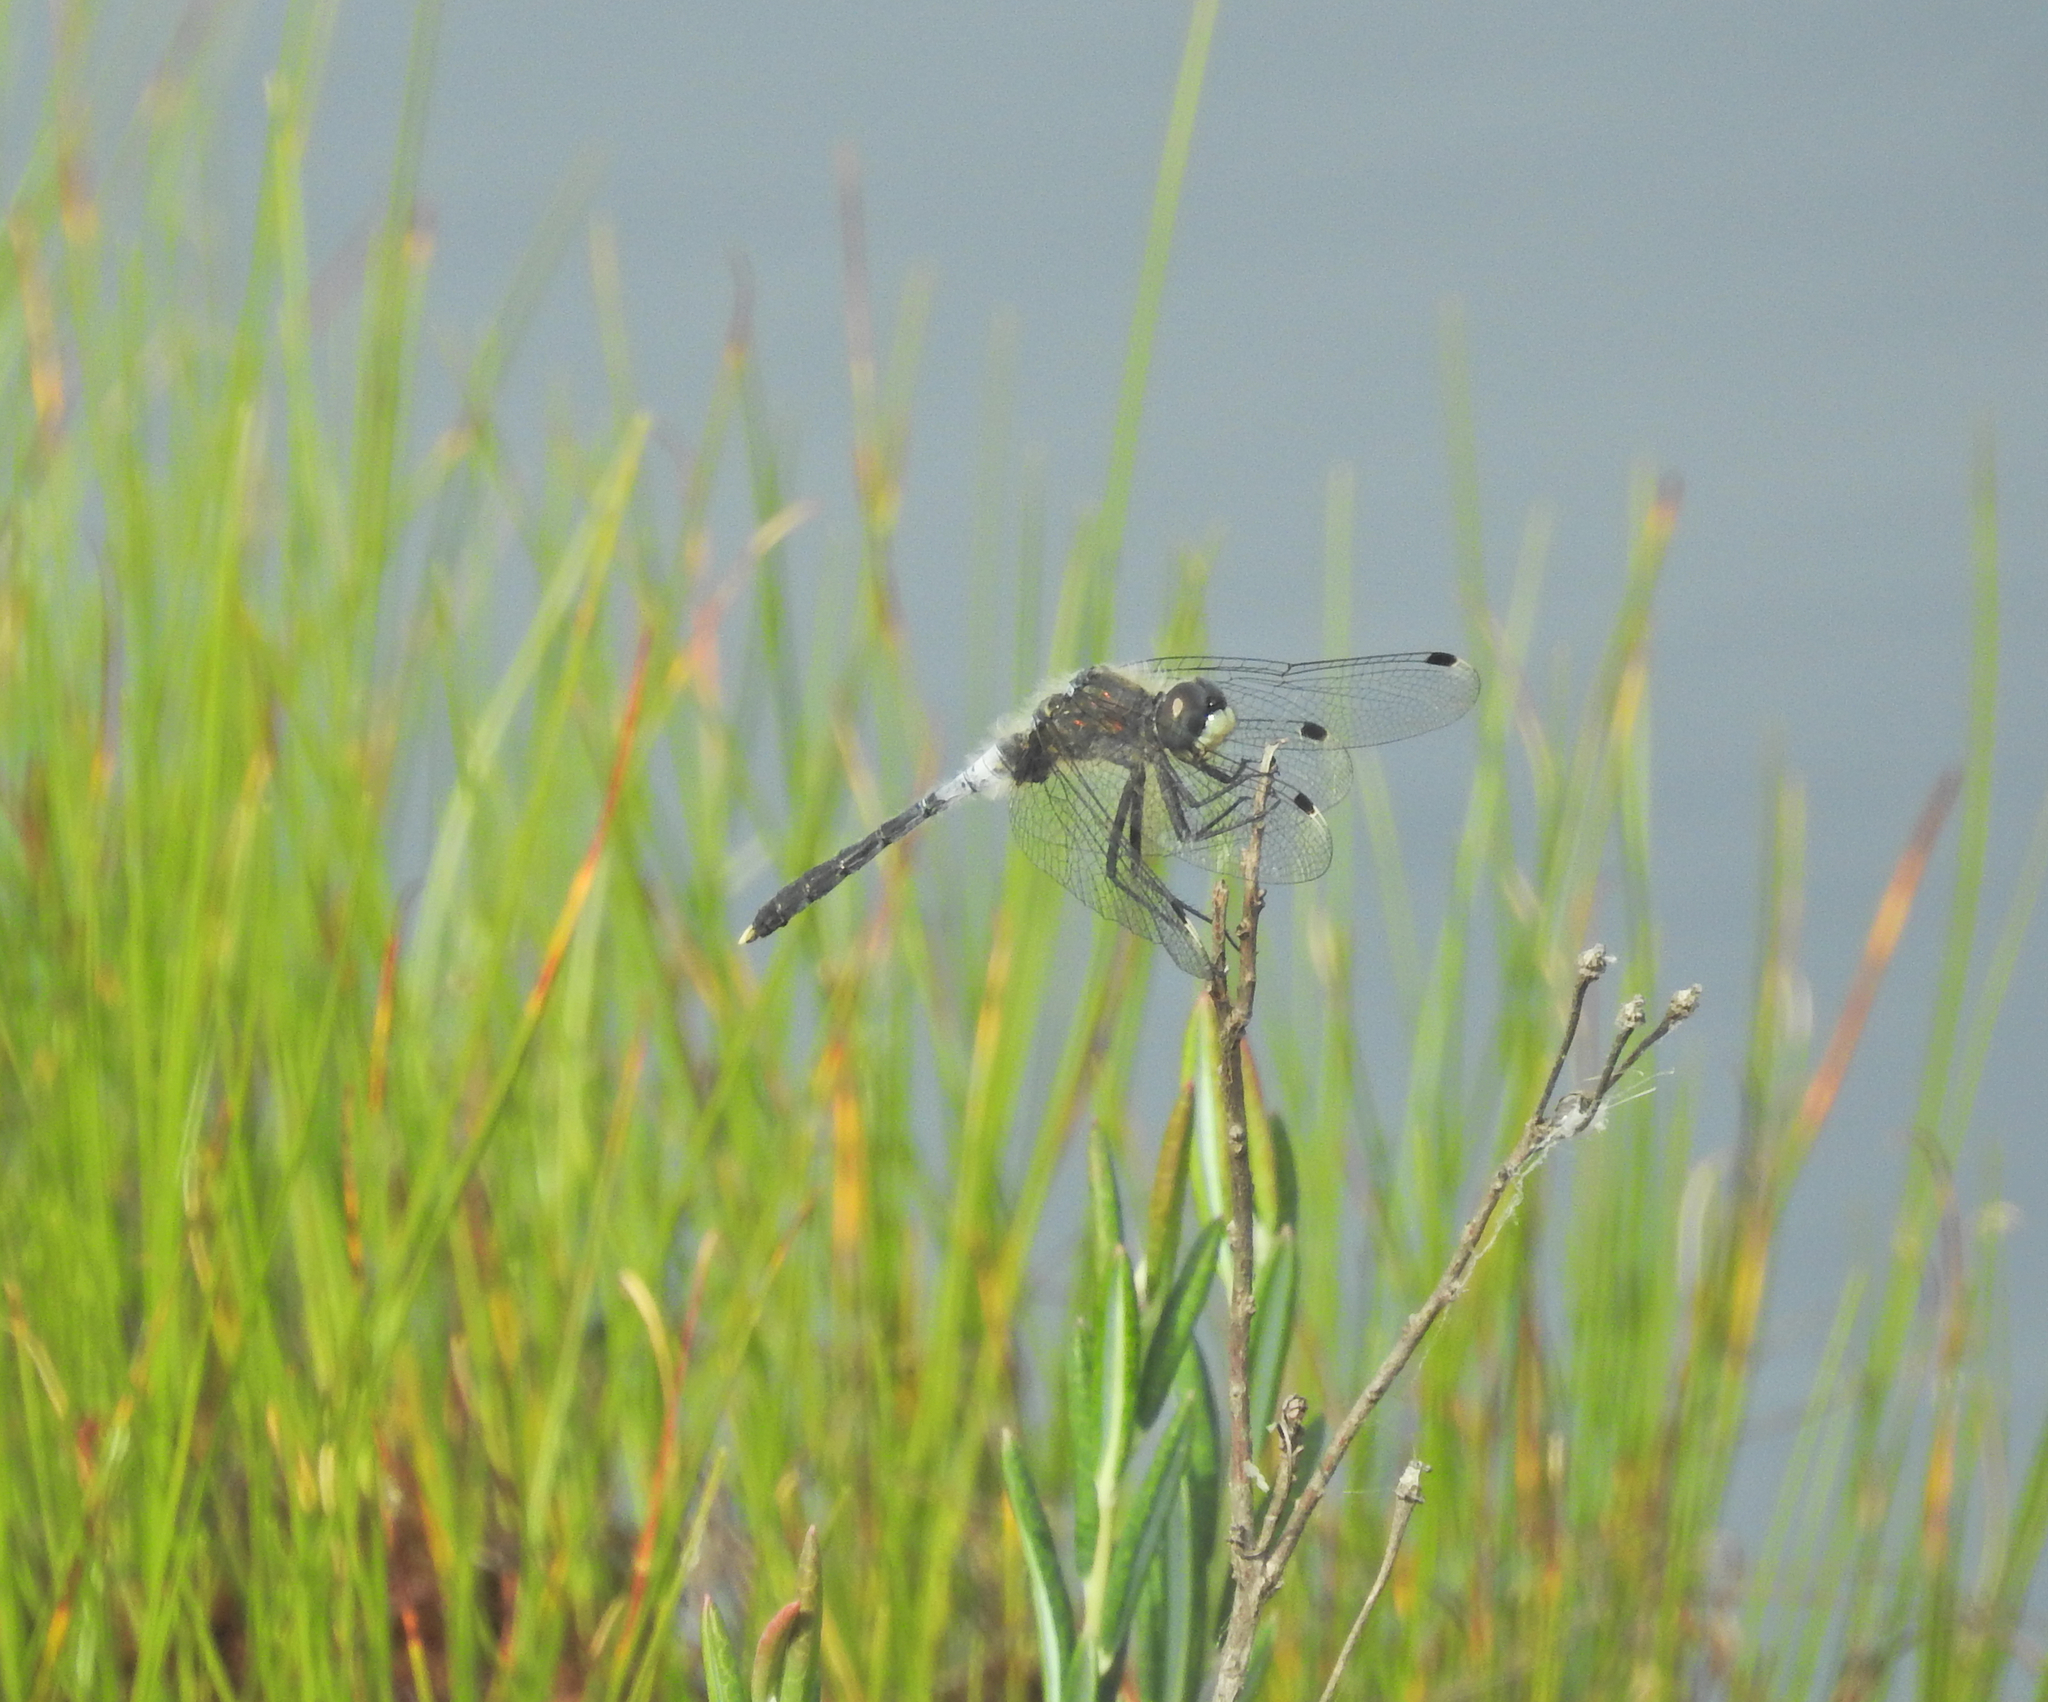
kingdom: Animalia
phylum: Arthropoda
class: Insecta
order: Odonata
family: Libellulidae
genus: Leucorrhinia
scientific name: Leucorrhinia albifrons
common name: Dark whiteface
